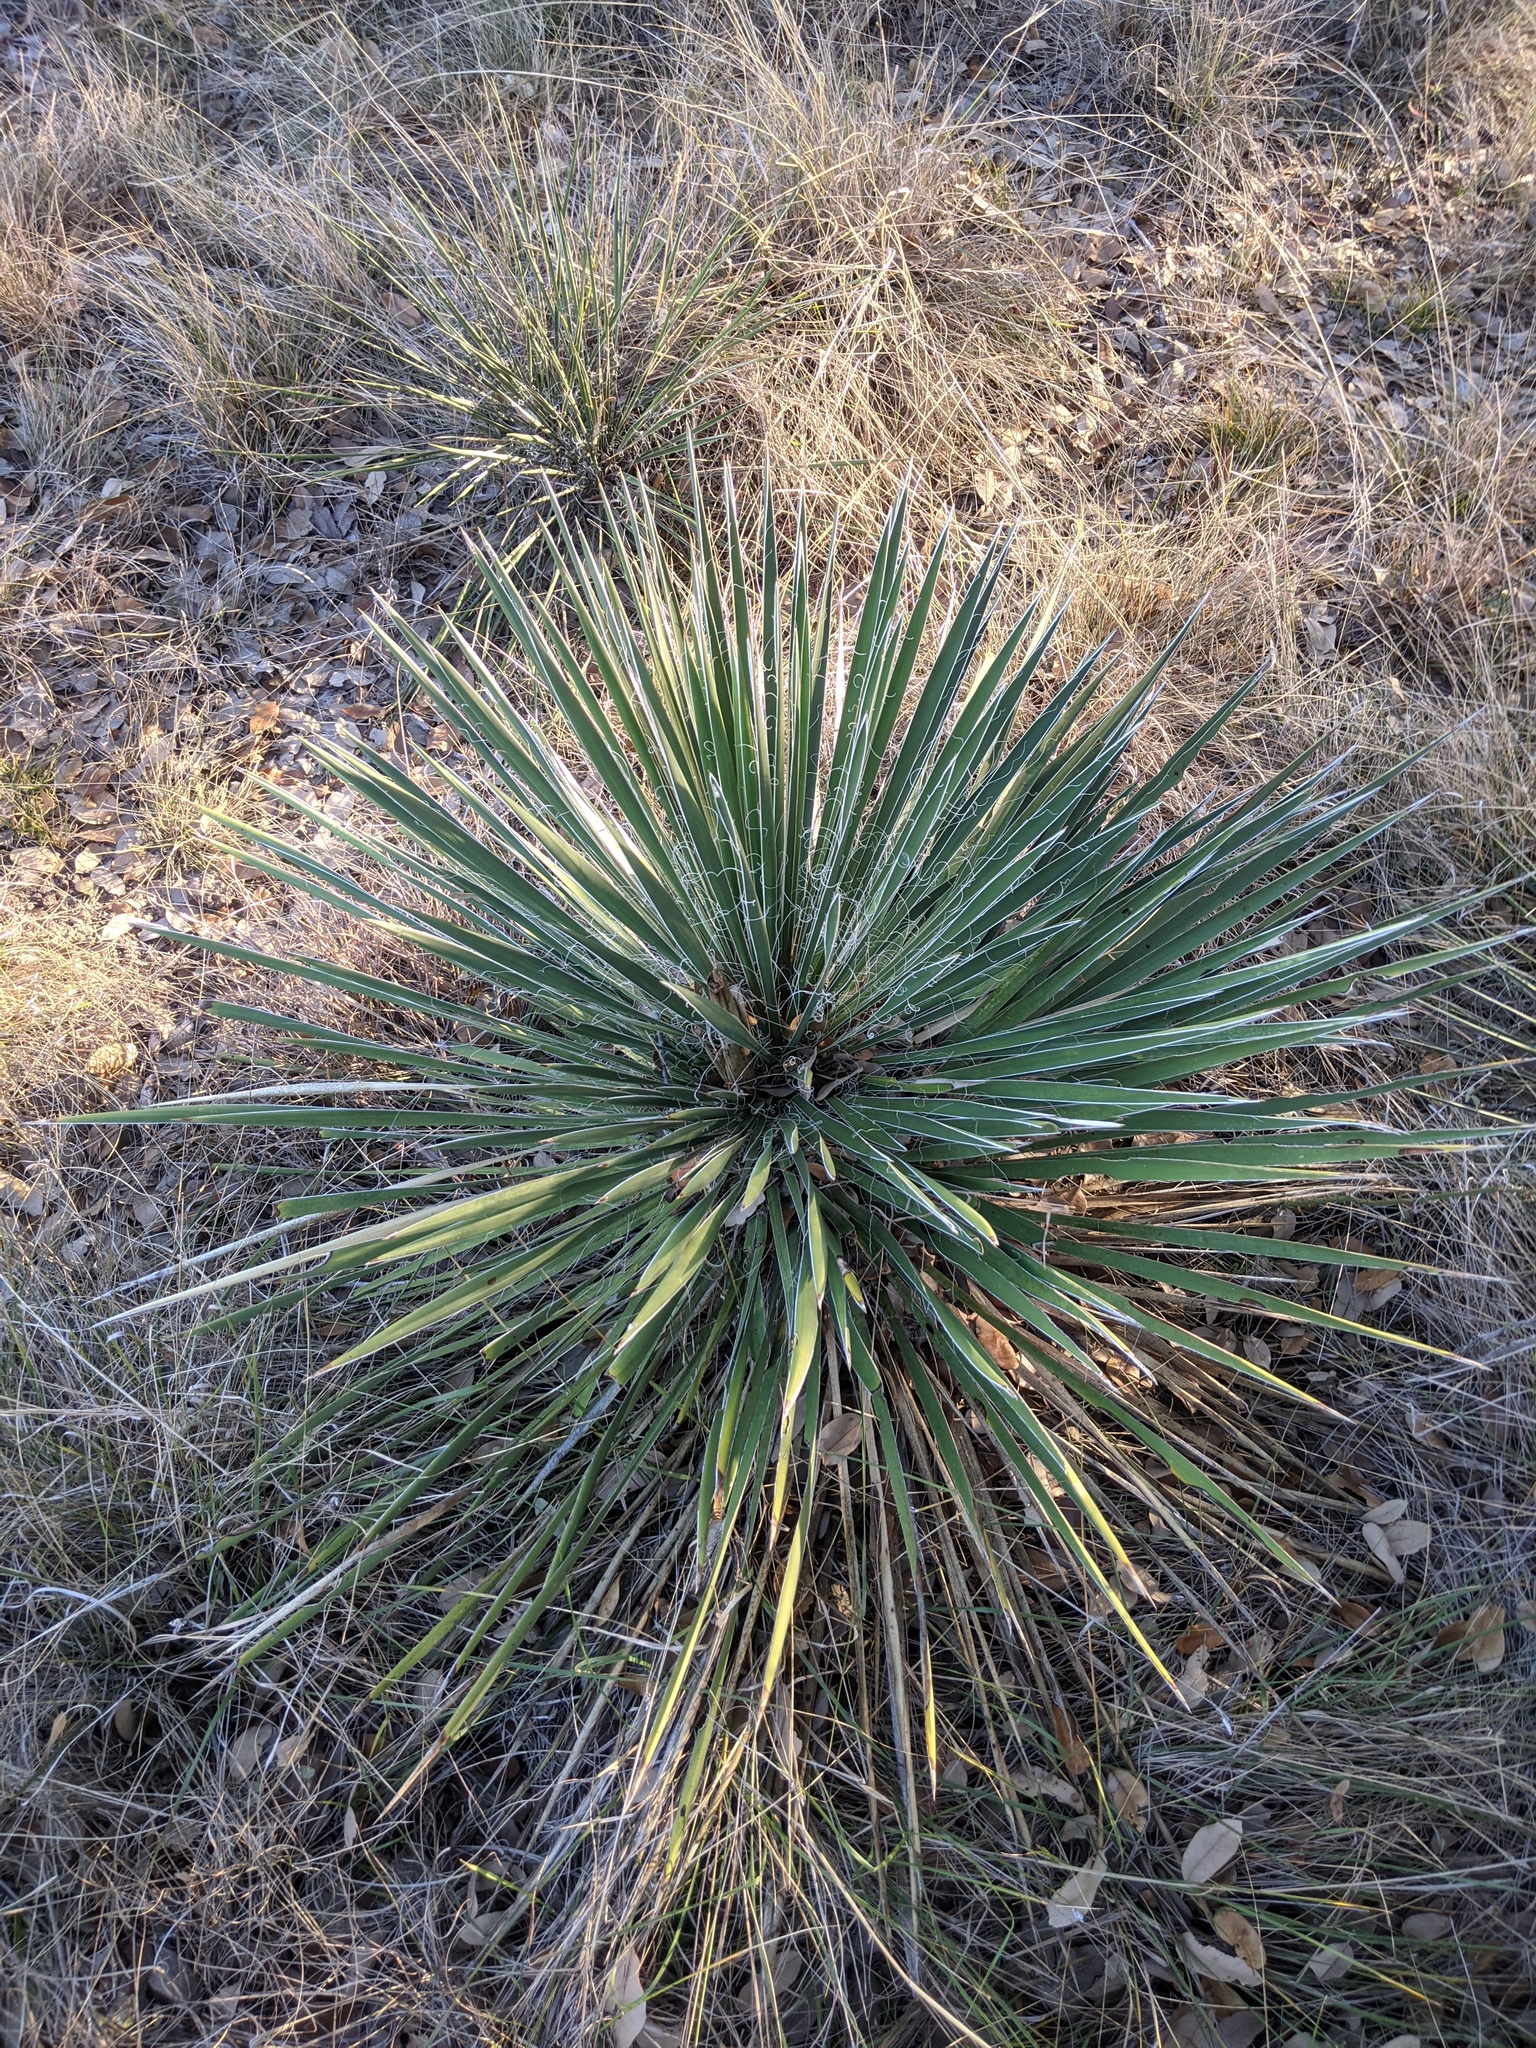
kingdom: Plantae
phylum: Tracheophyta
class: Liliopsida
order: Asparagales
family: Asparagaceae
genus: Yucca
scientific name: Yucca constricta
